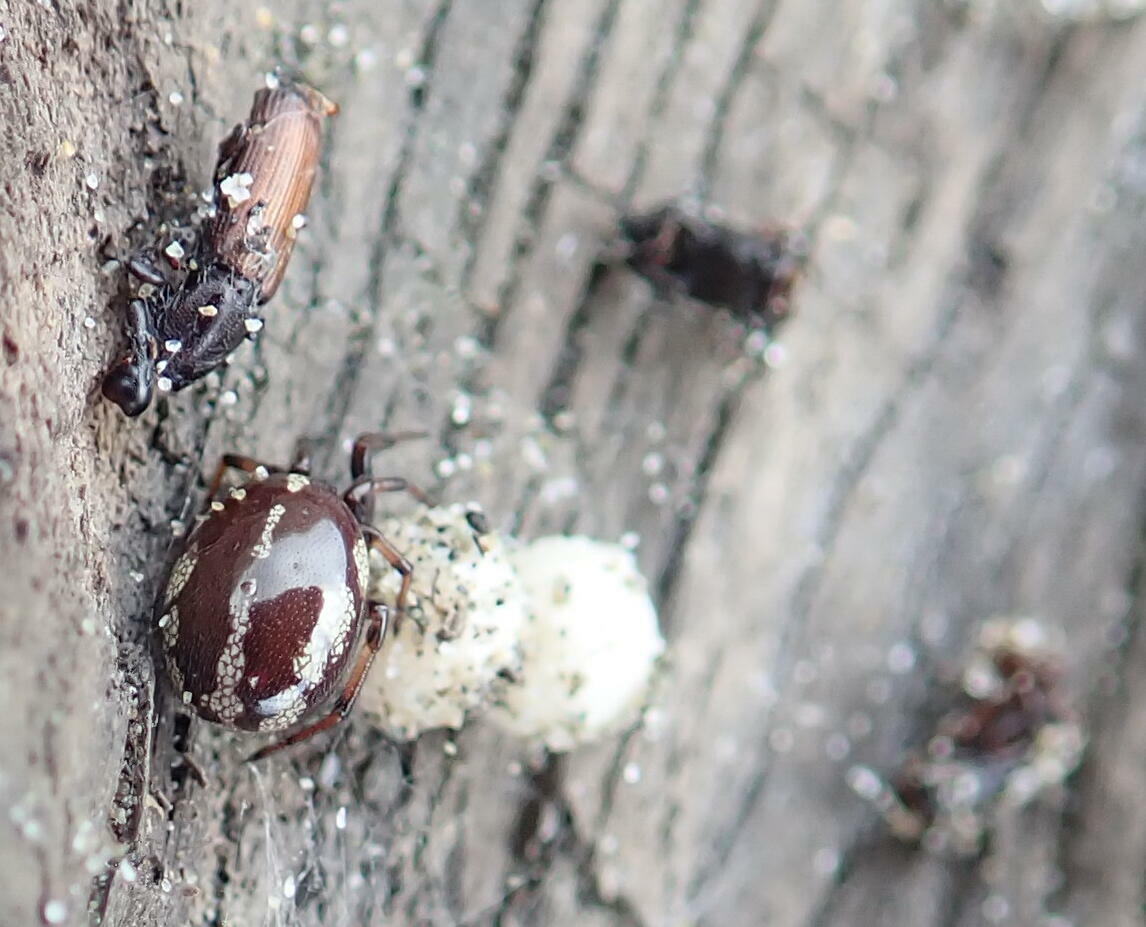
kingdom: Animalia
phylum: Arthropoda
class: Arachnida
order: Araneae
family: Theridiidae
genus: Steatoda
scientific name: Steatoda lepida
